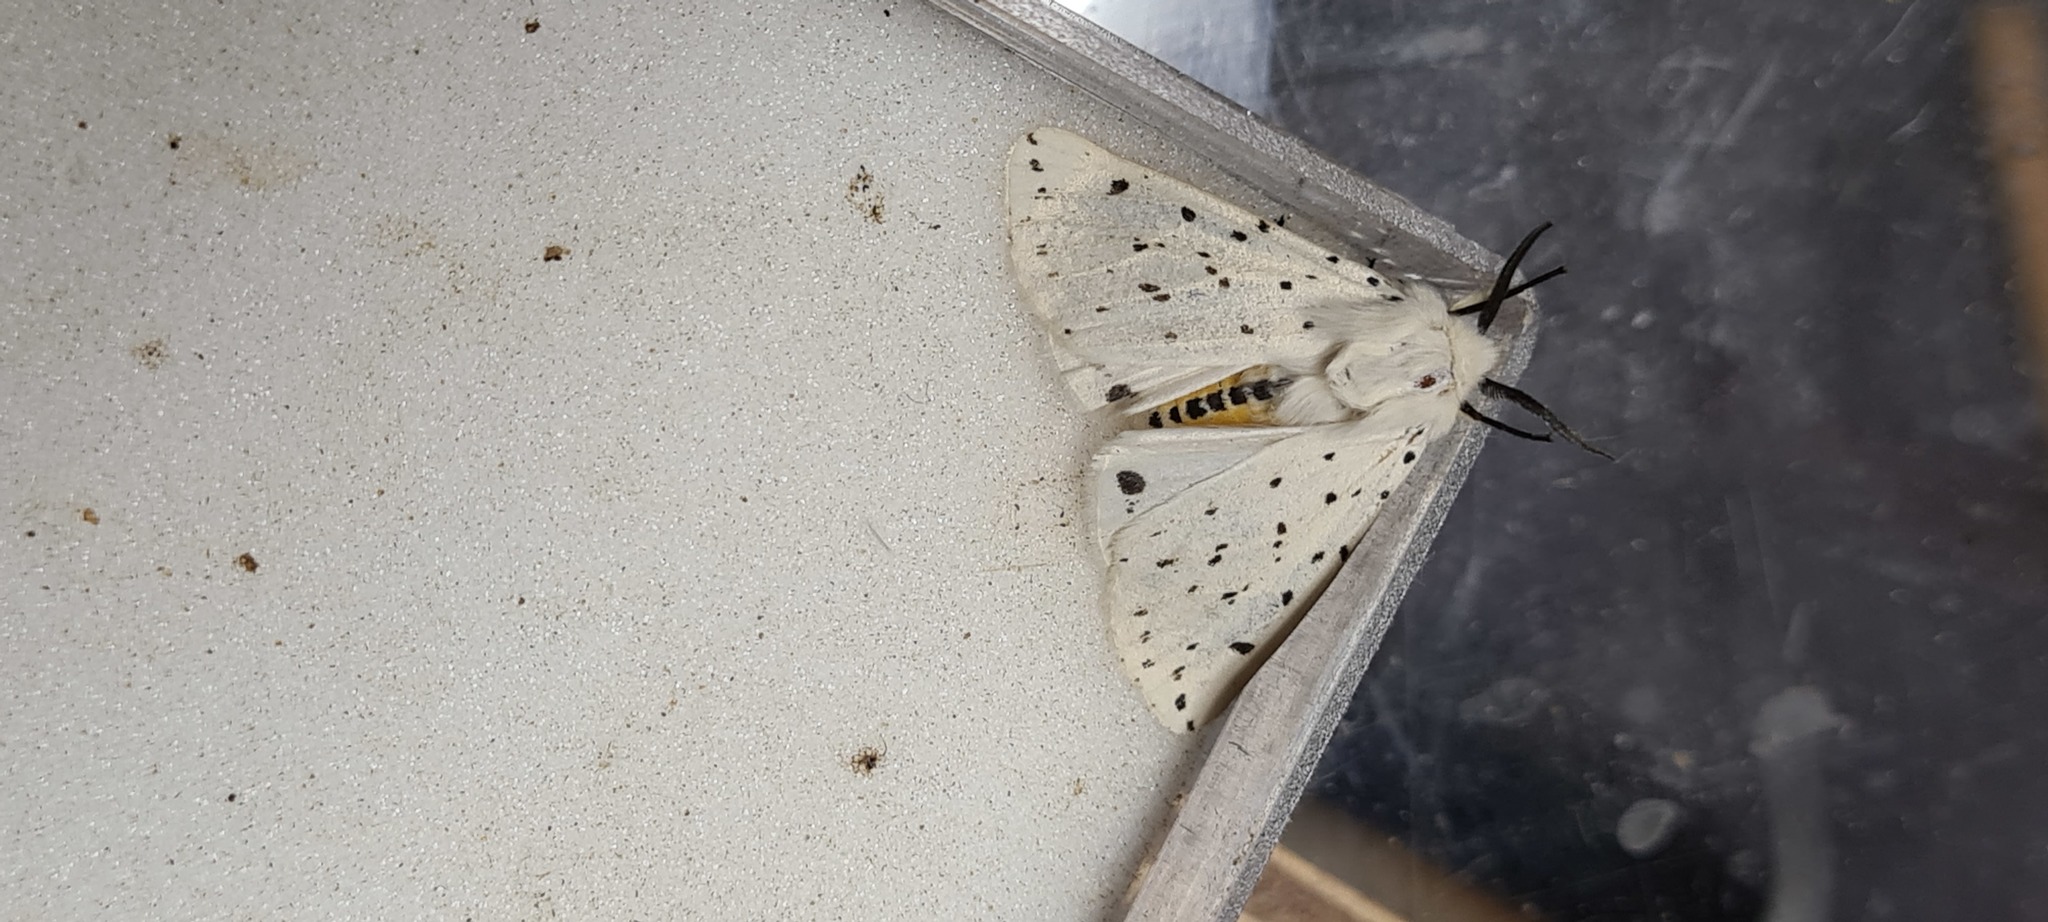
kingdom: Animalia
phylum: Arthropoda
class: Insecta
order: Lepidoptera
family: Erebidae
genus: Spilosoma
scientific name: Spilosoma lubricipeda
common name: White ermine
